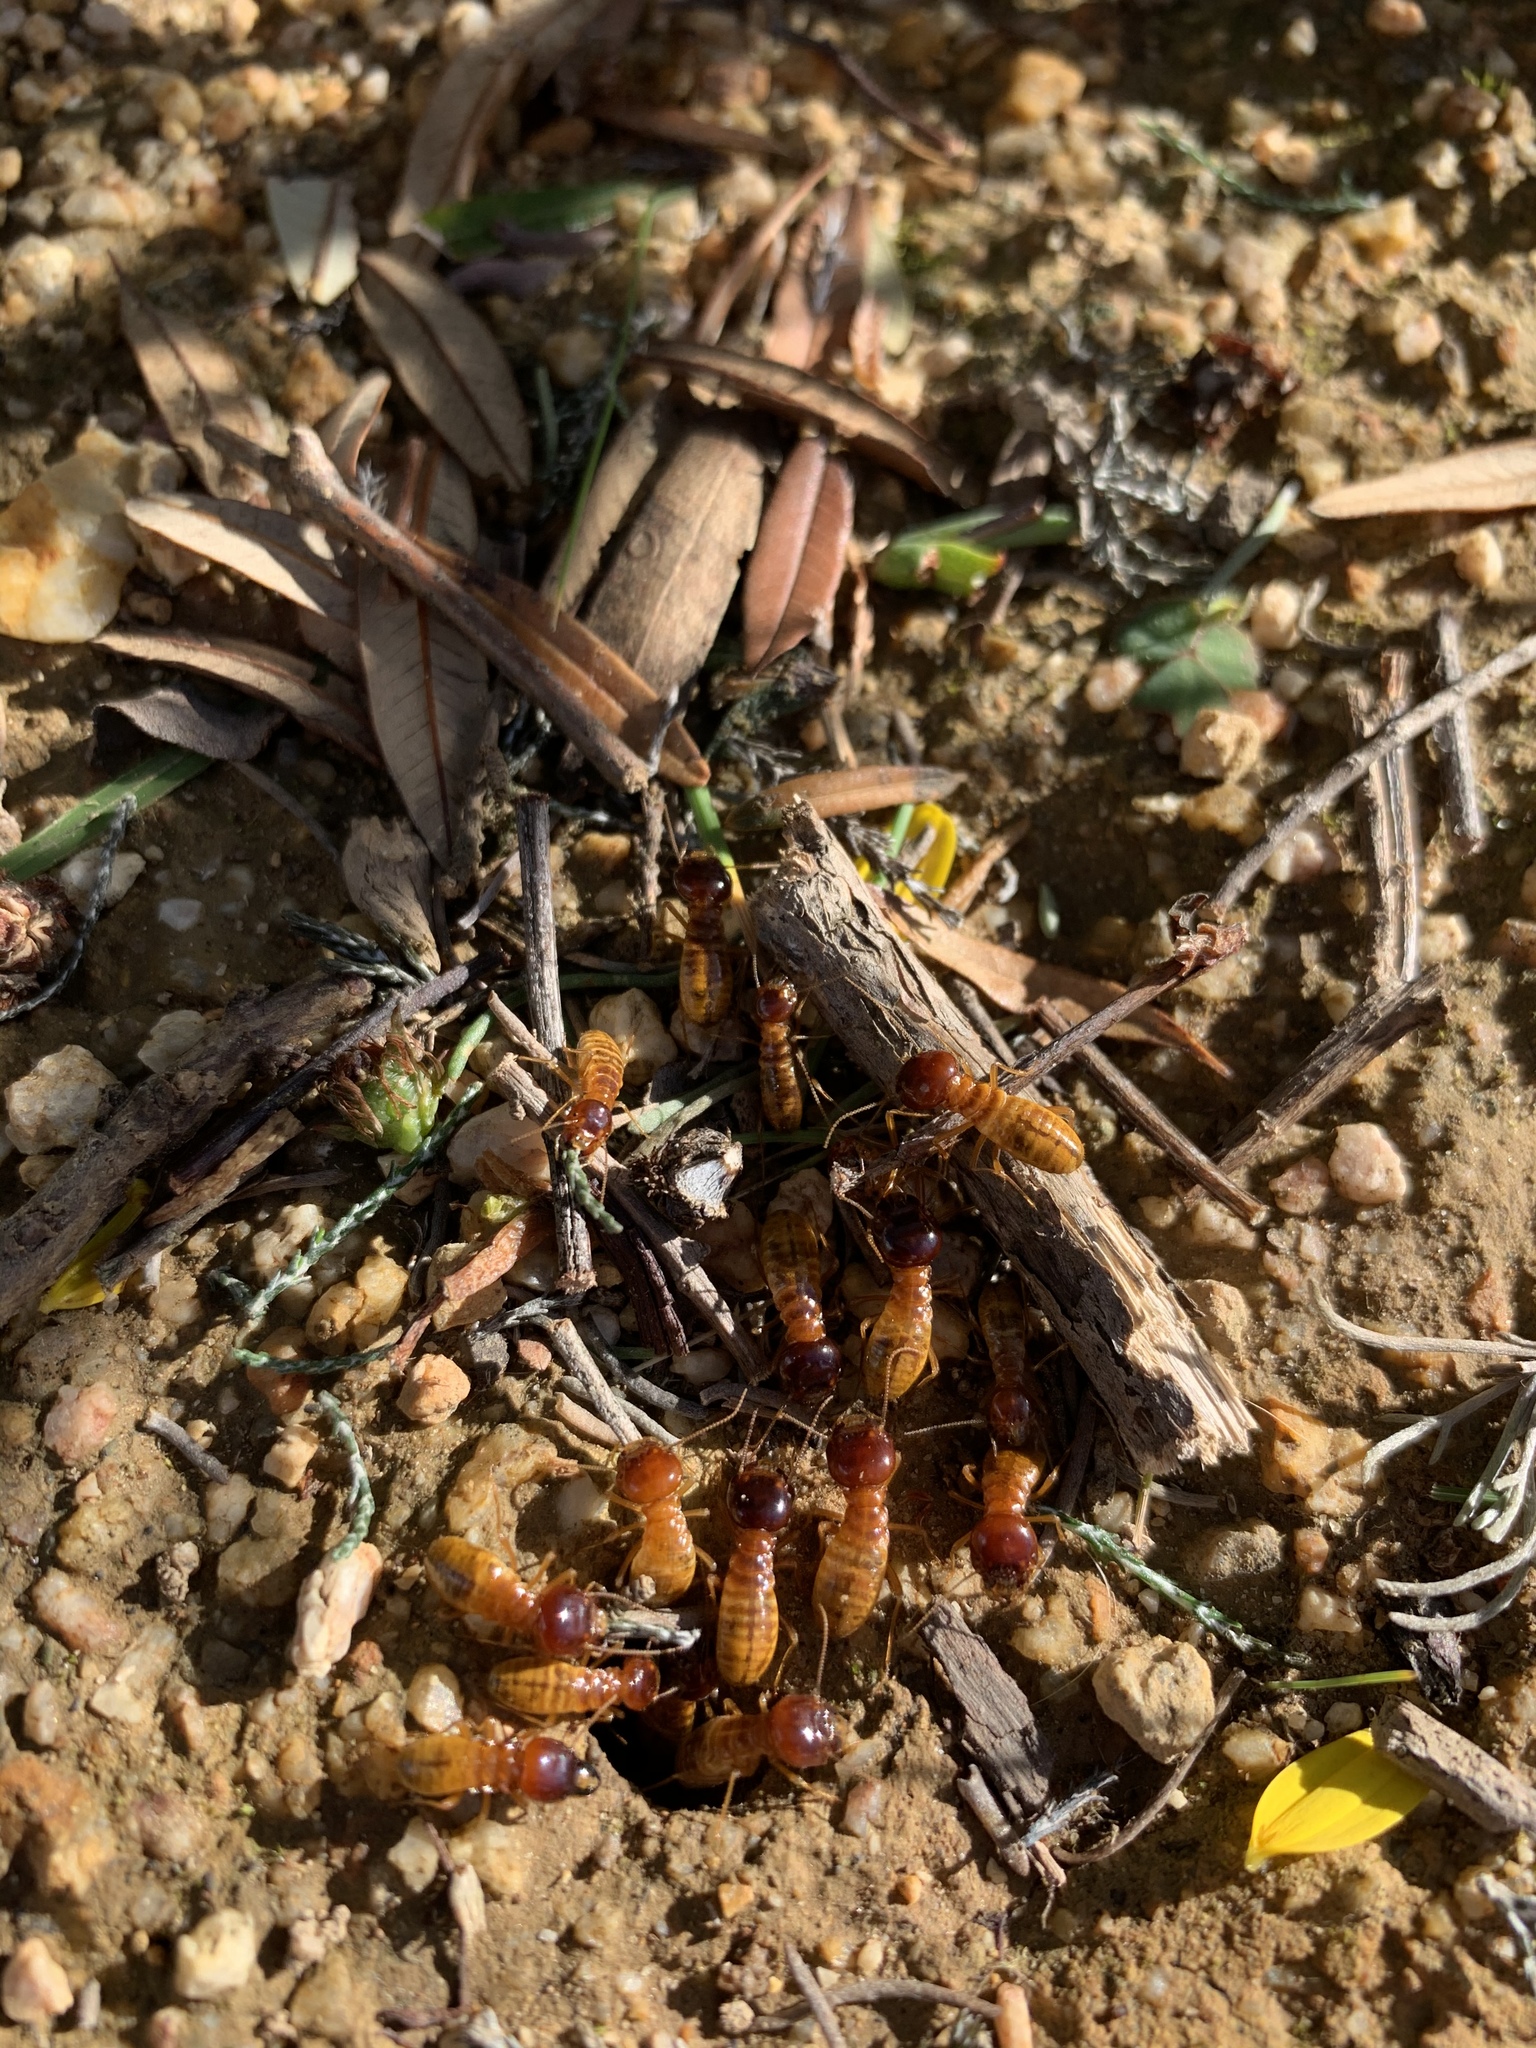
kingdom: Animalia
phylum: Arthropoda
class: Insecta
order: Blattodea
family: Hodotermitidae
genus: Microhodotermes
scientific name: Microhodotermes viator
